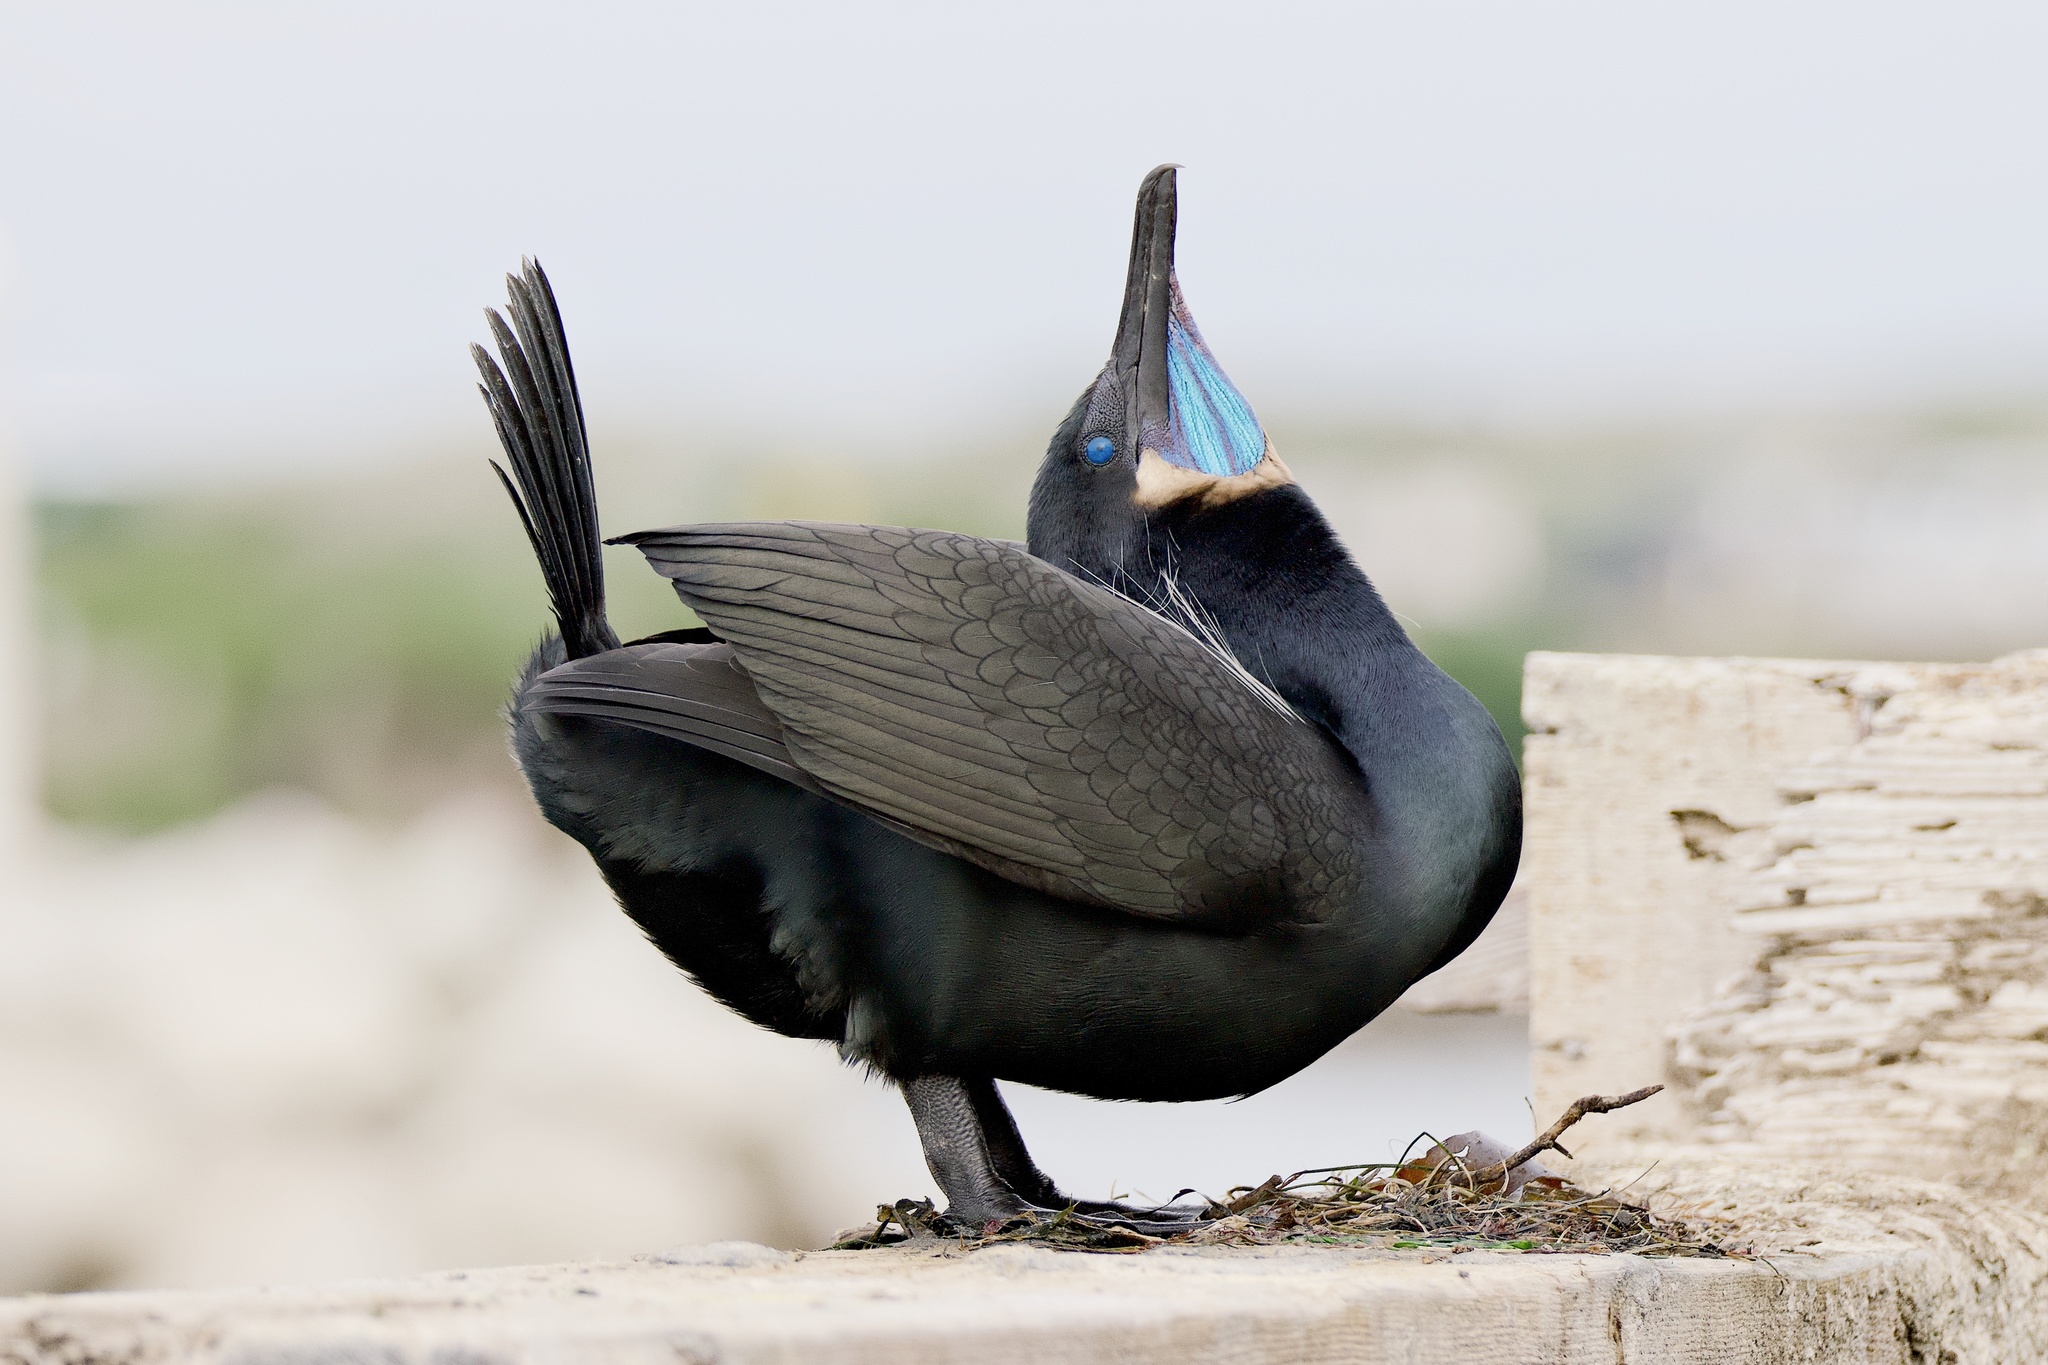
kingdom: Animalia
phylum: Chordata
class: Aves
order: Suliformes
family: Phalacrocoracidae
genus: Urile
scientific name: Urile penicillatus
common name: Brandt's cormorant
